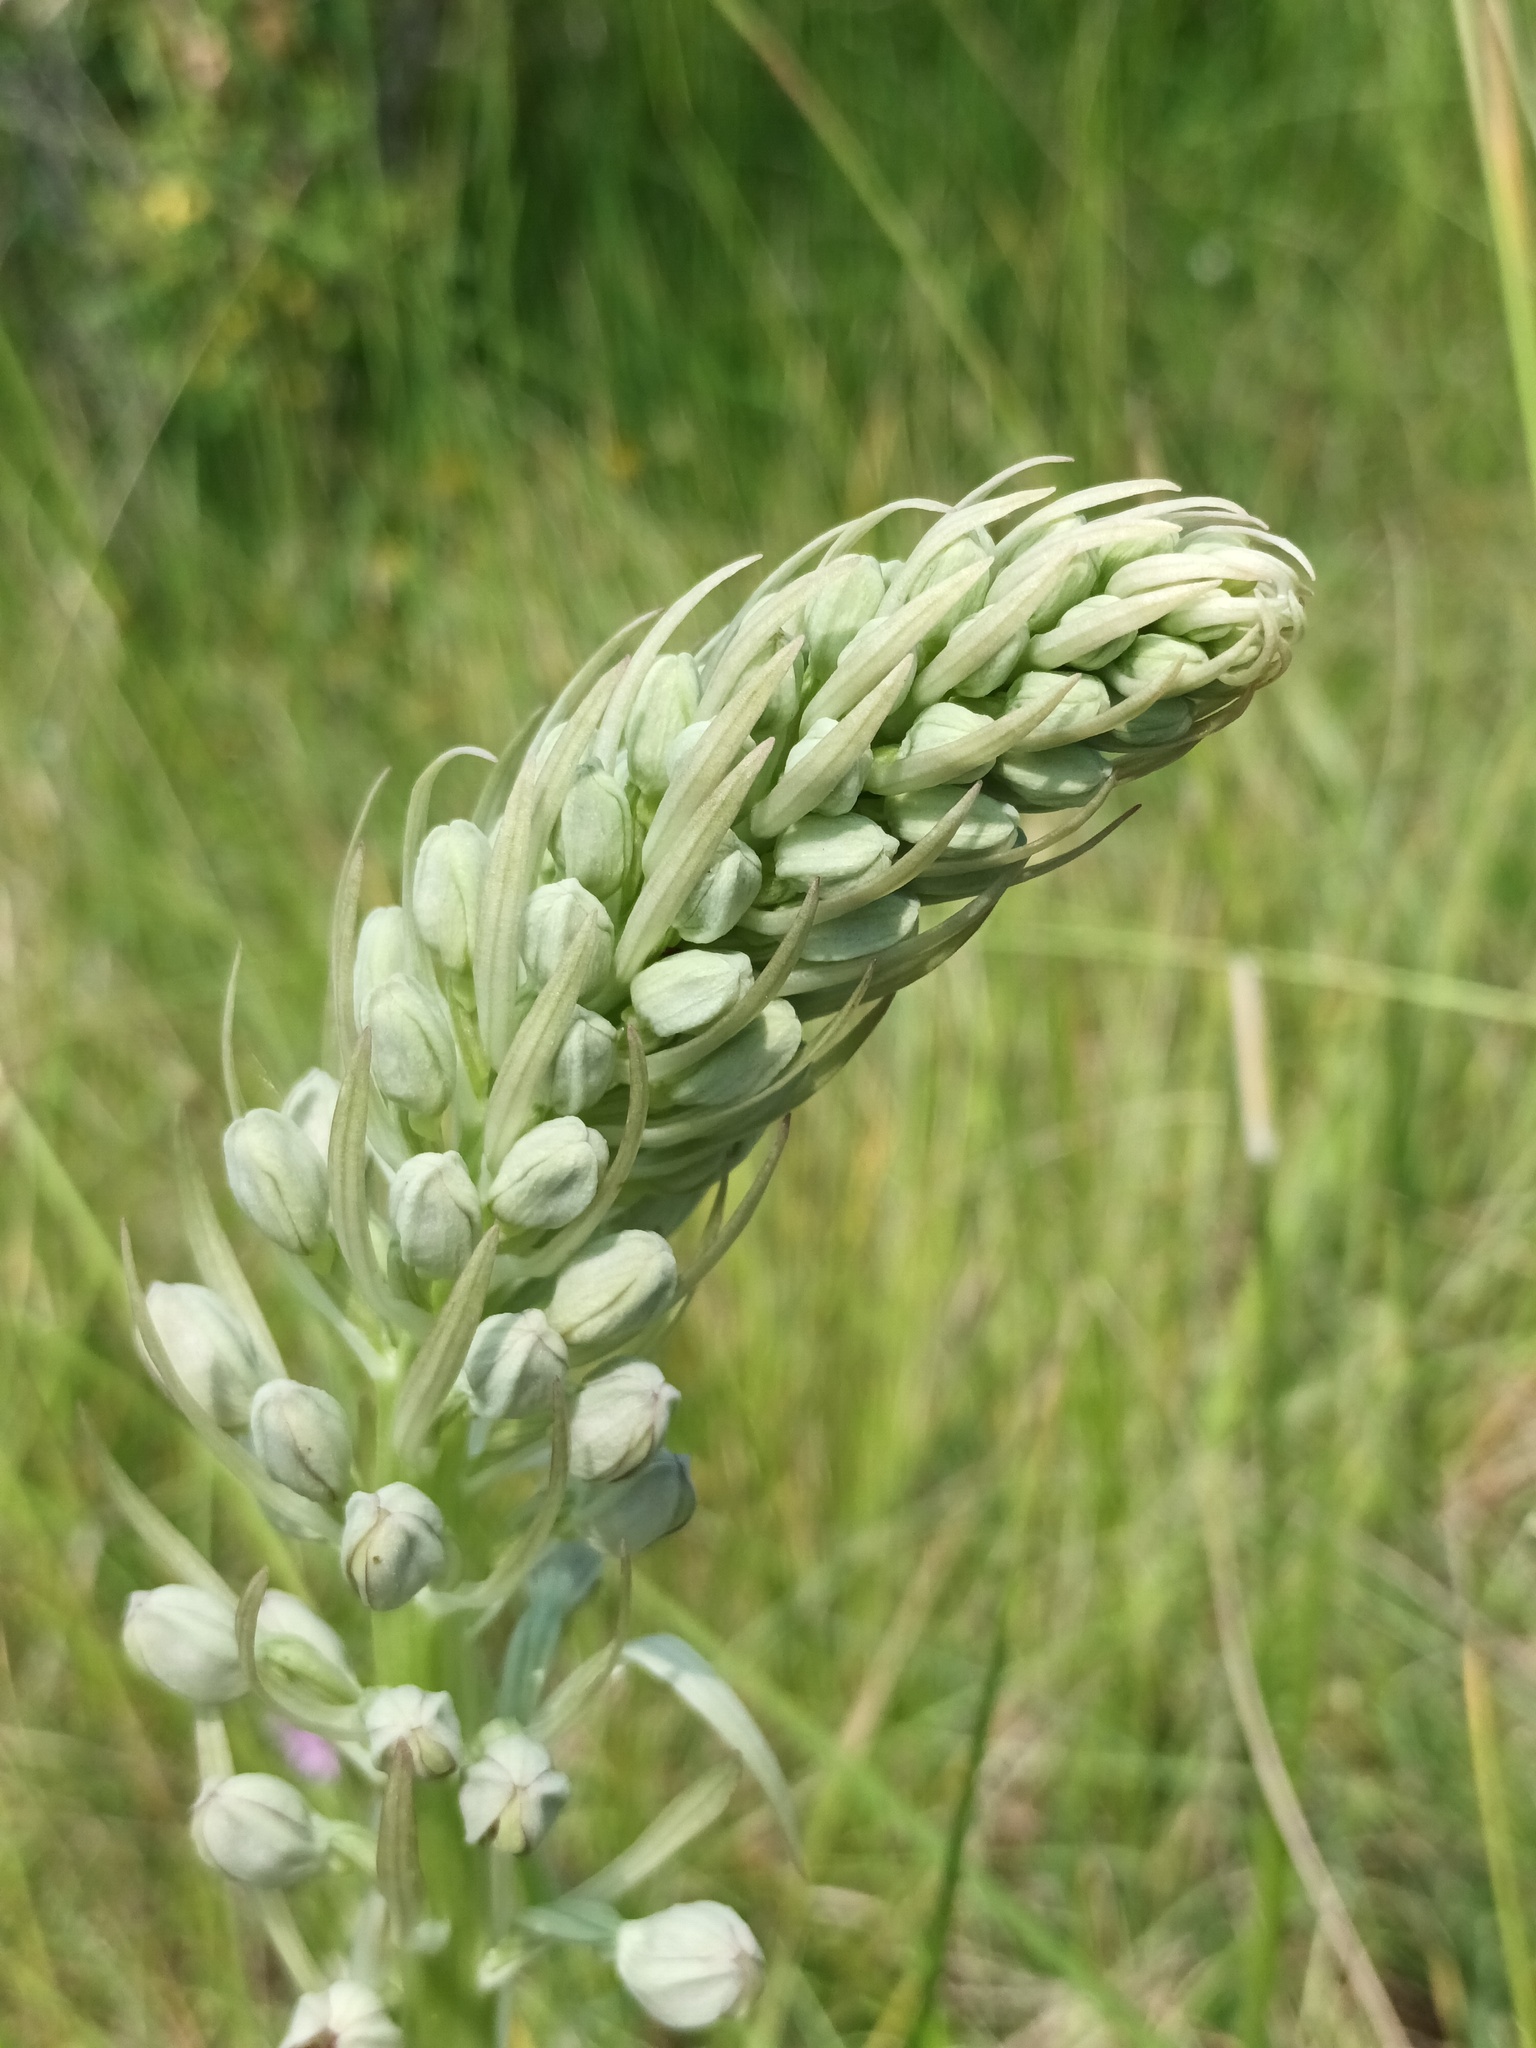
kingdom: Plantae
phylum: Tracheophyta
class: Liliopsida
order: Asparagales
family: Orchidaceae
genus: Himantoglossum
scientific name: Himantoglossum hircinum
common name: Lizard orchid
